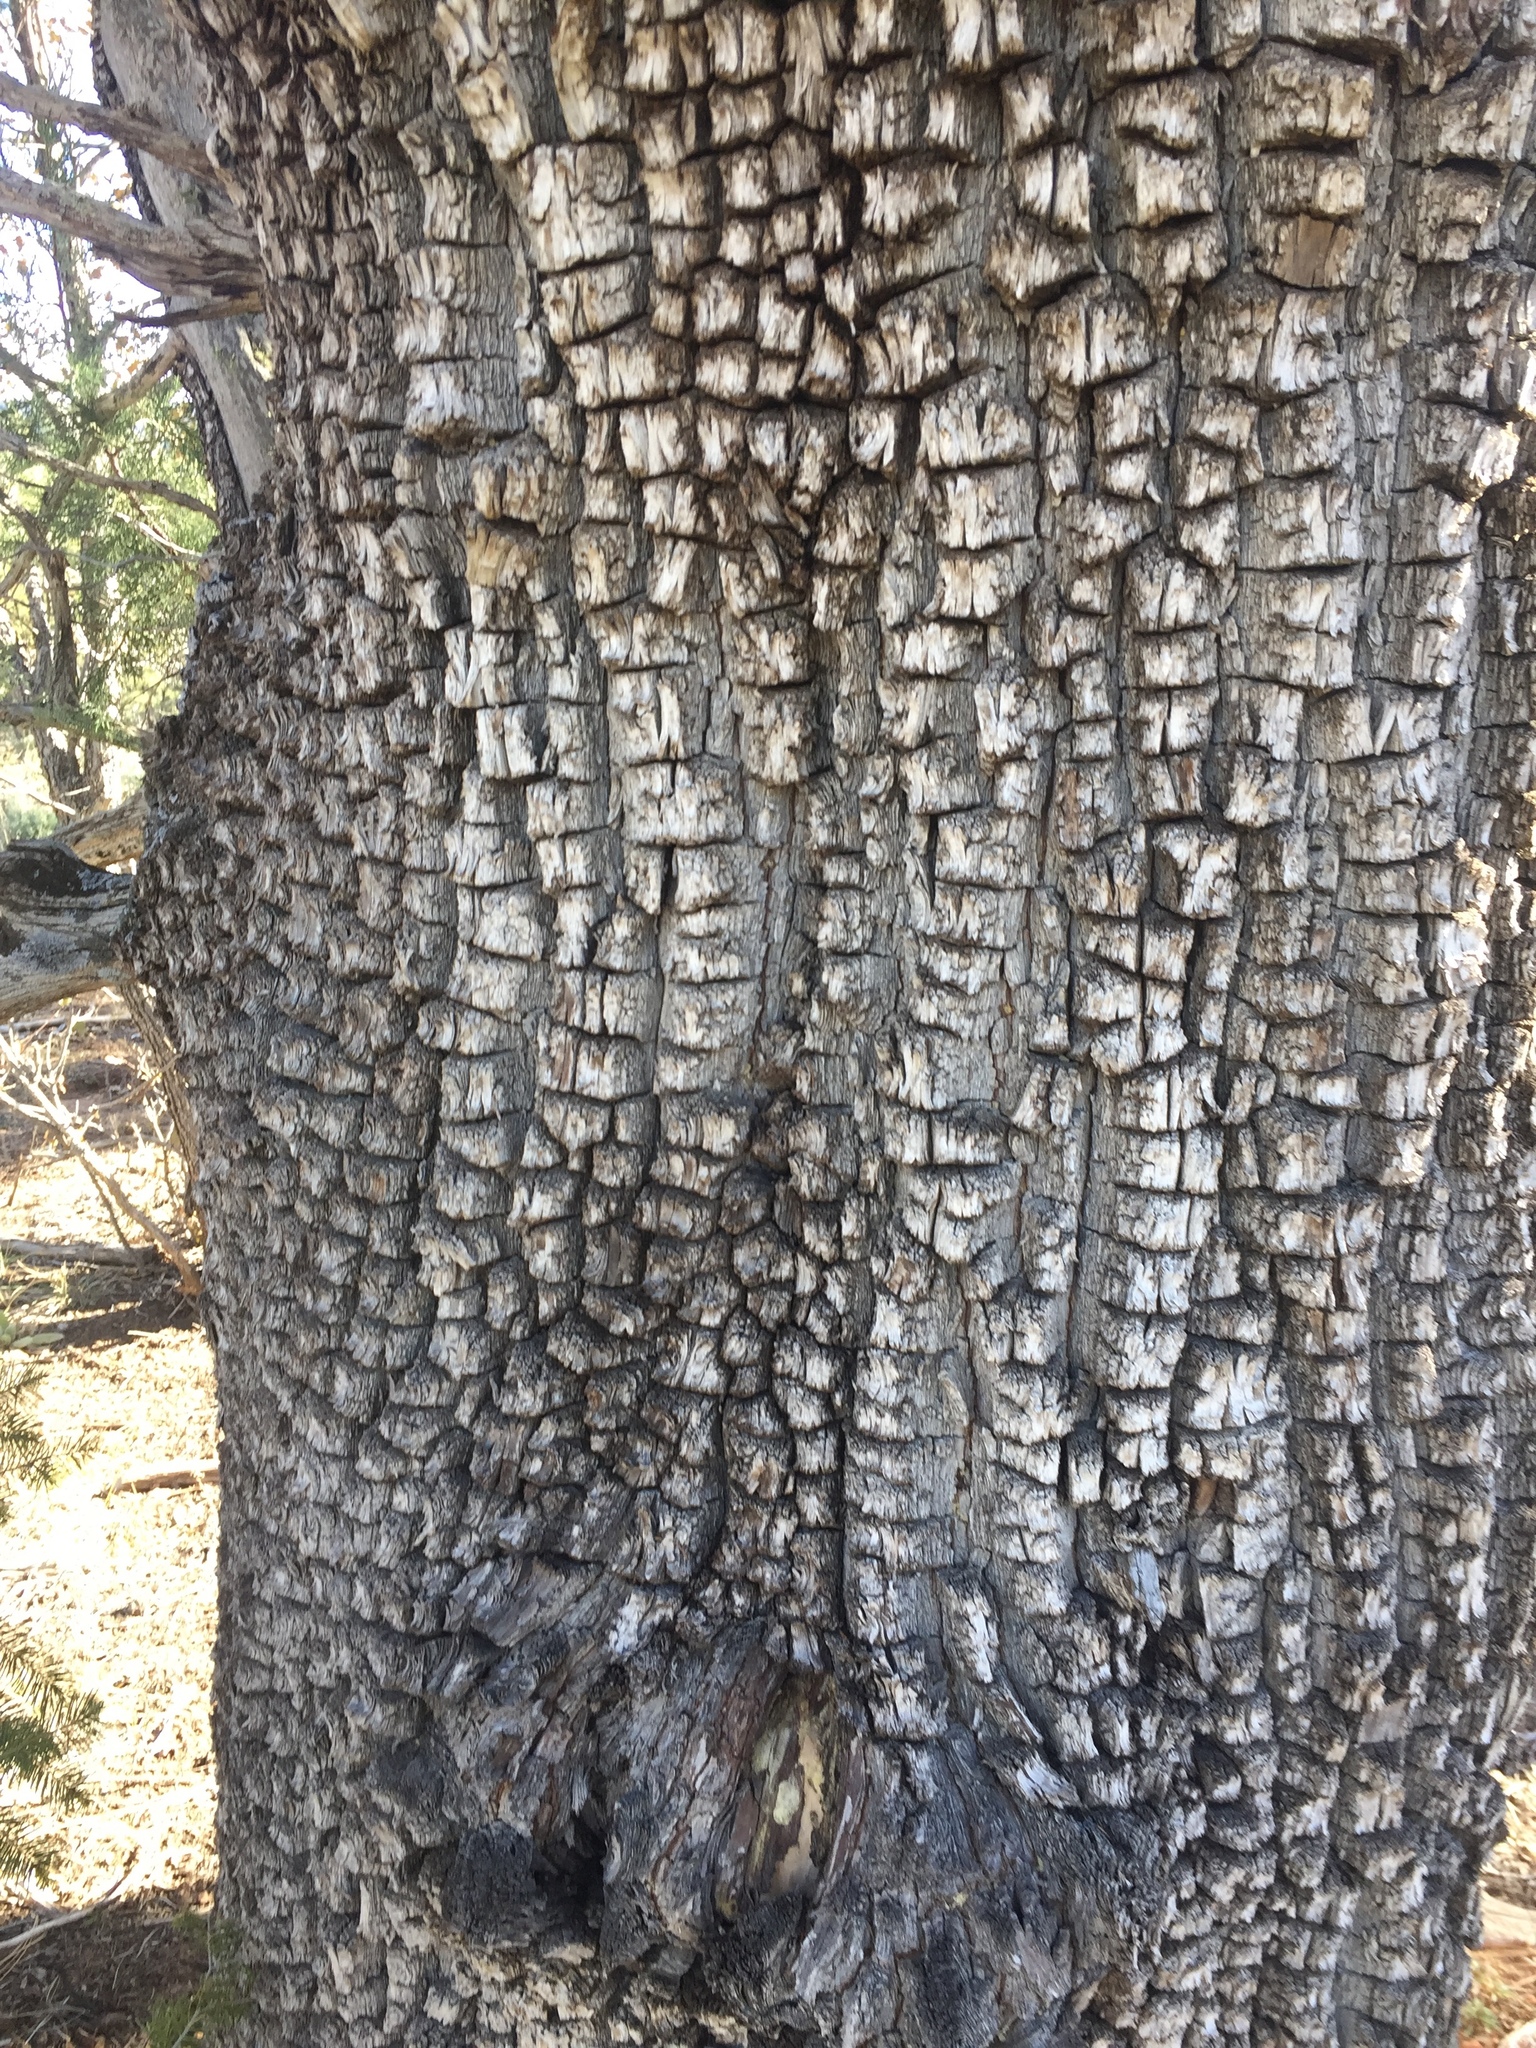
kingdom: Plantae
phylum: Tracheophyta
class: Pinopsida
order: Pinales
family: Cupressaceae
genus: Juniperus
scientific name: Juniperus deppeana
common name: Alligator juniper
